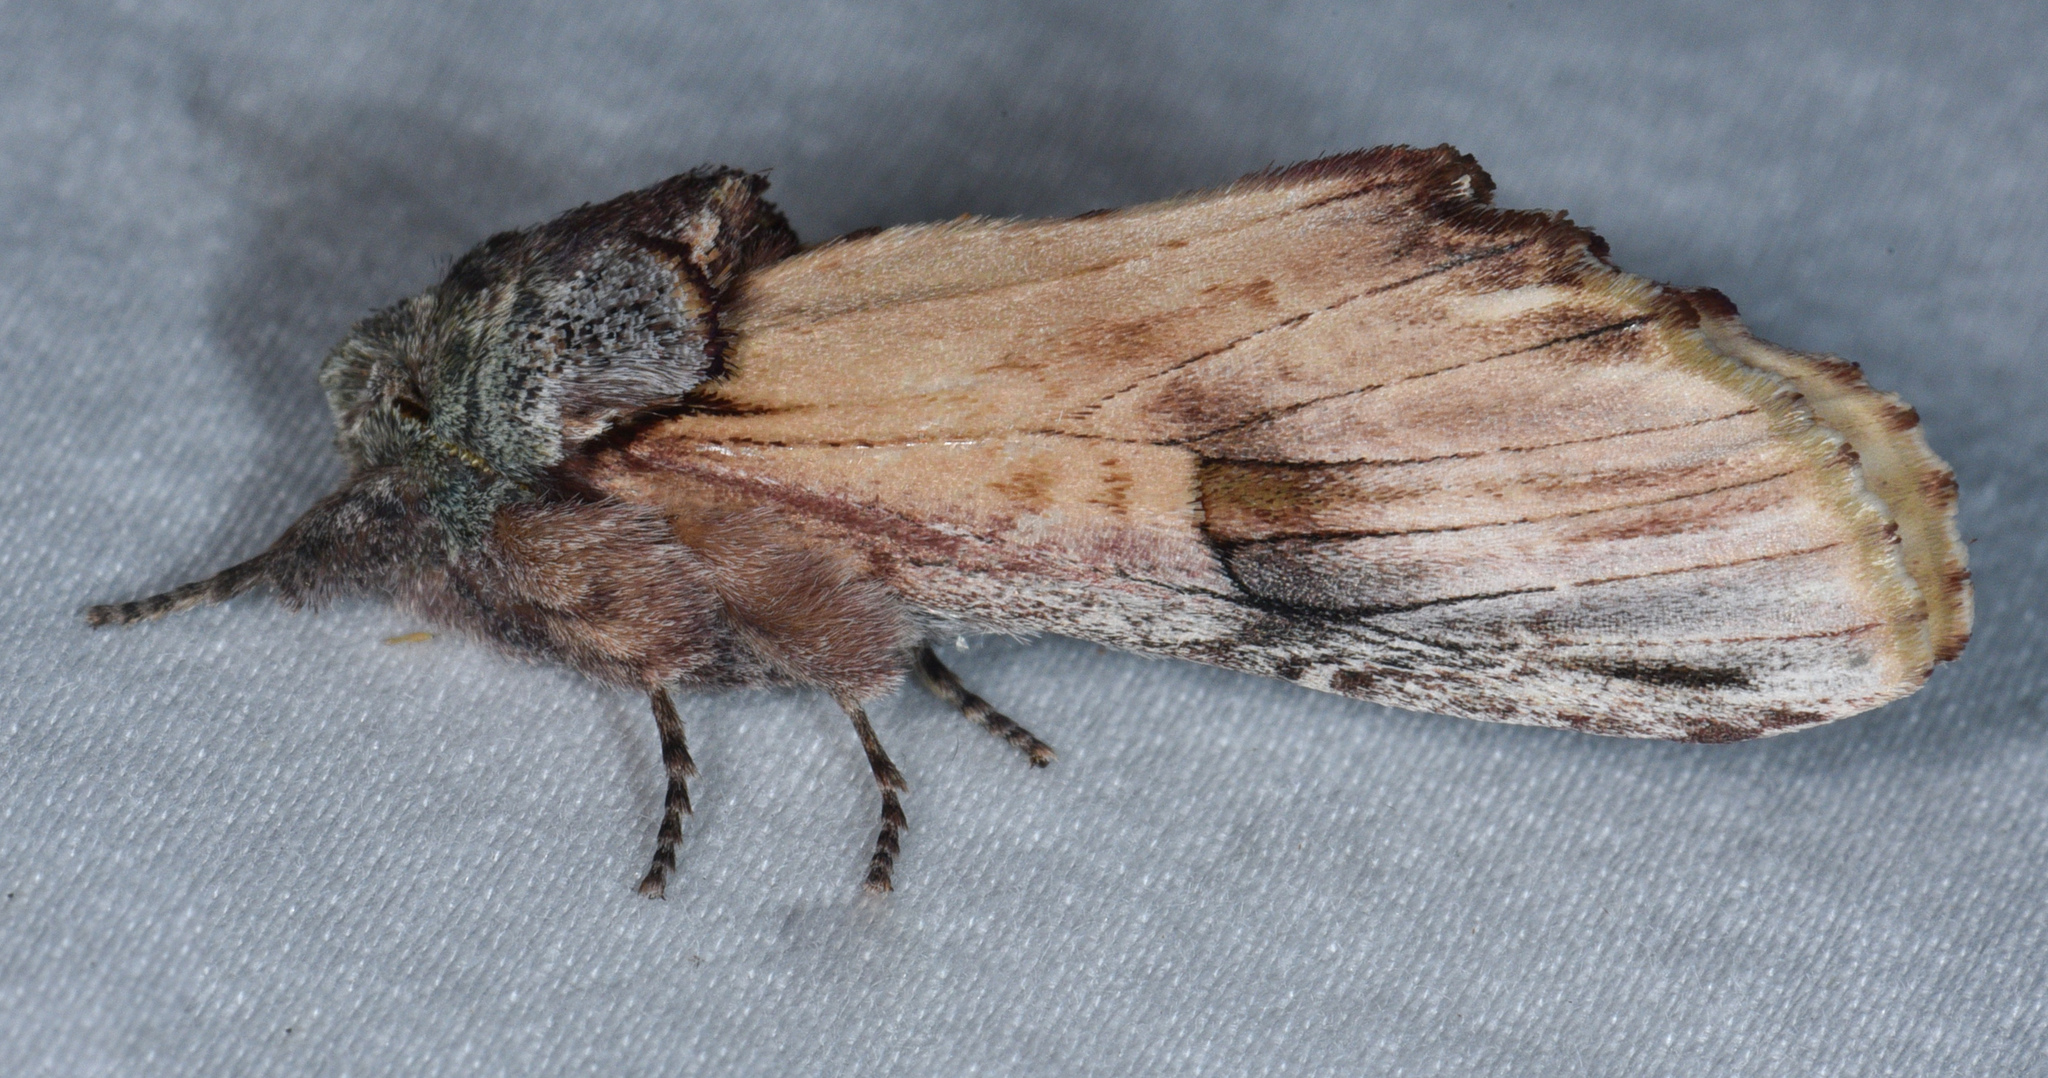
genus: Ianassa
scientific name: Ianassa
